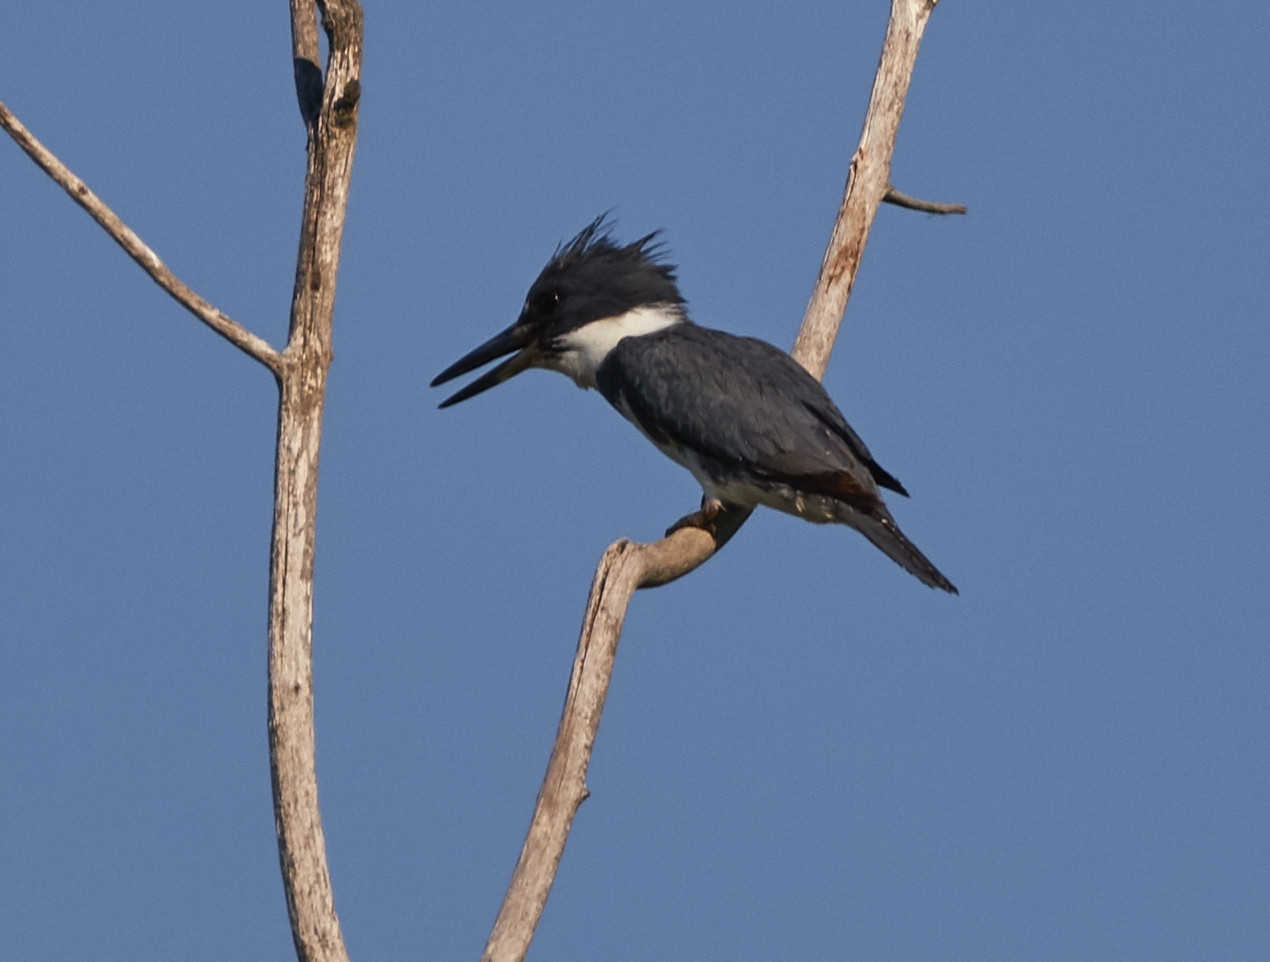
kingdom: Animalia
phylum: Chordata
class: Aves
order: Coraciiformes
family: Alcedinidae
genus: Megaceryle
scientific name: Megaceryle alcyon
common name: Belted kingfisher
